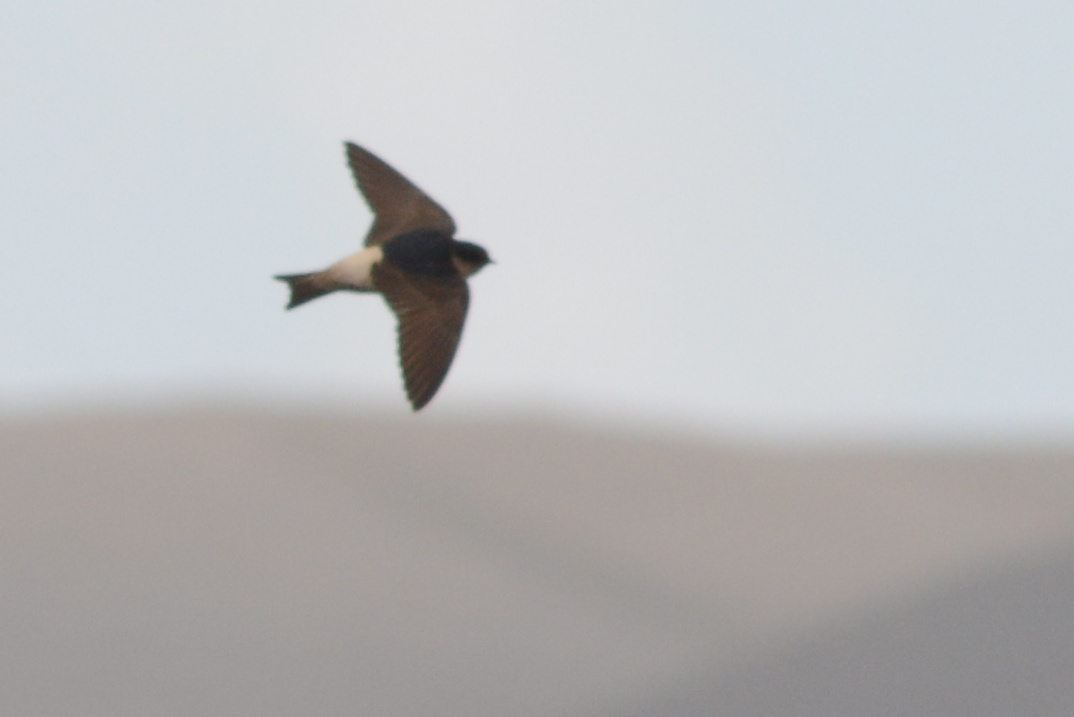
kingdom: Animalia
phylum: Chordata
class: Aves
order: Passeriformes
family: Hirundinidae
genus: Petrochelidon
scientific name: Petrochelidon nigricans
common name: Tree martin
